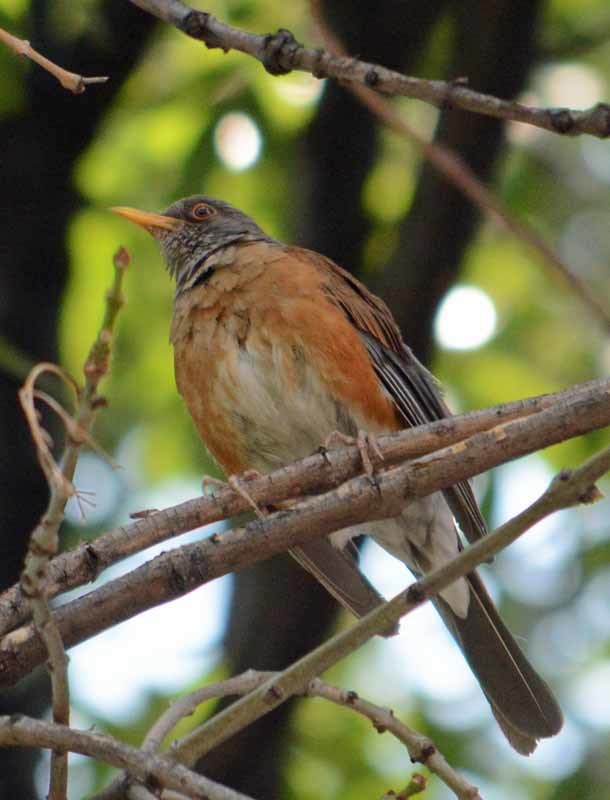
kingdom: Animalia
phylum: Chordata
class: Aves
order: Passeriformes
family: Turdidae
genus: Turdus
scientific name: Turdus rufopalliatus
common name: Rufous-backed robin
